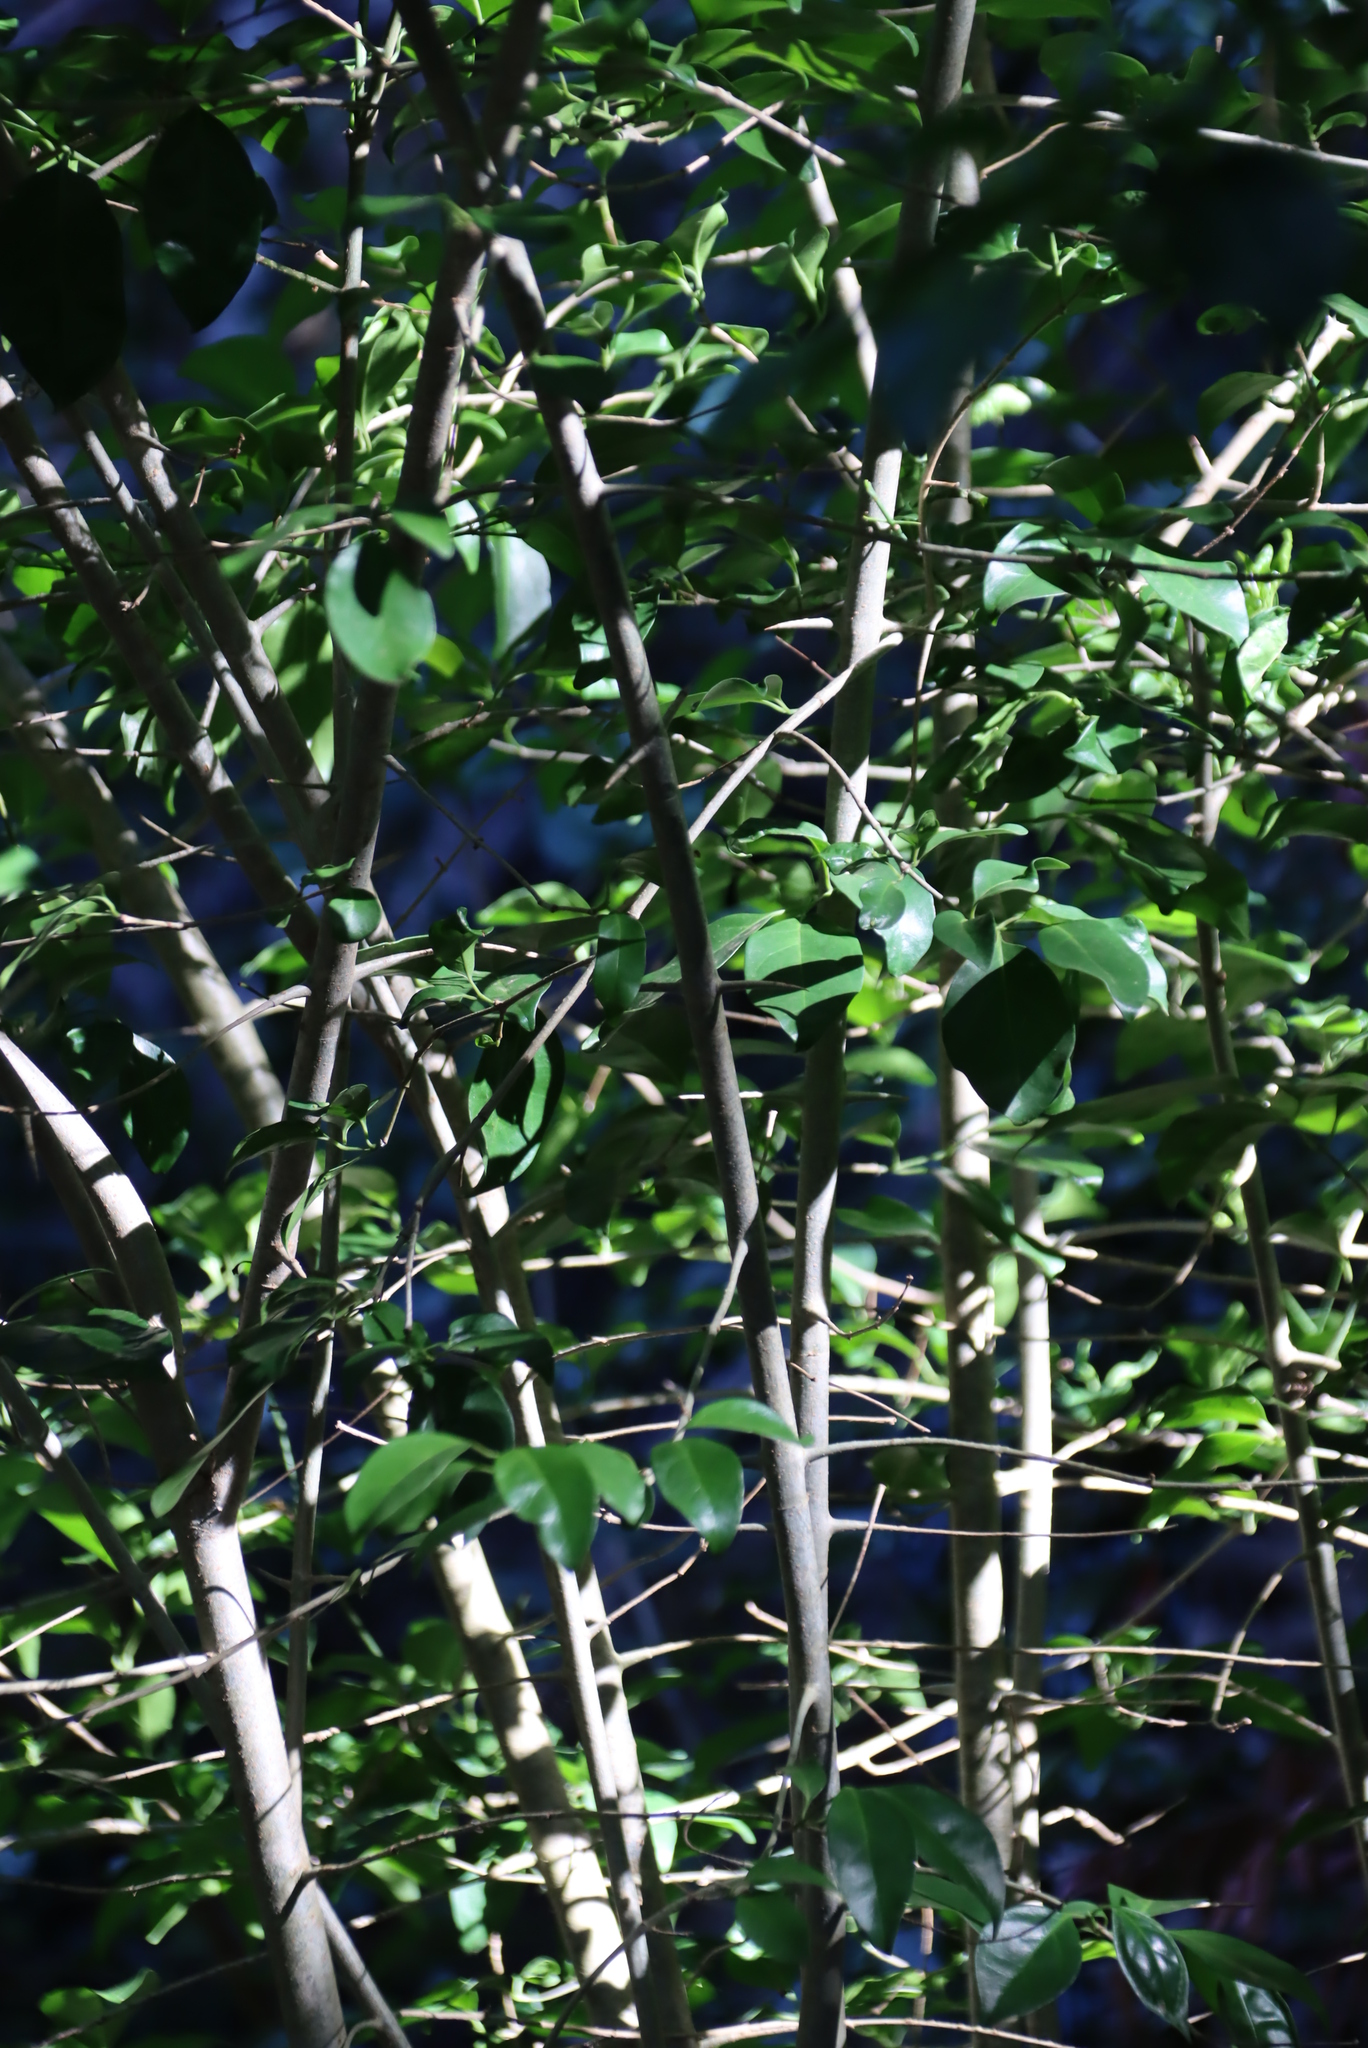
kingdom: Plantae
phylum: Tracheophyta
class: Magnoliopsida
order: Gentianales
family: Rubiaceae
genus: Canthium
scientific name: Canthium inerme
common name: Unarmed turkey-berry
